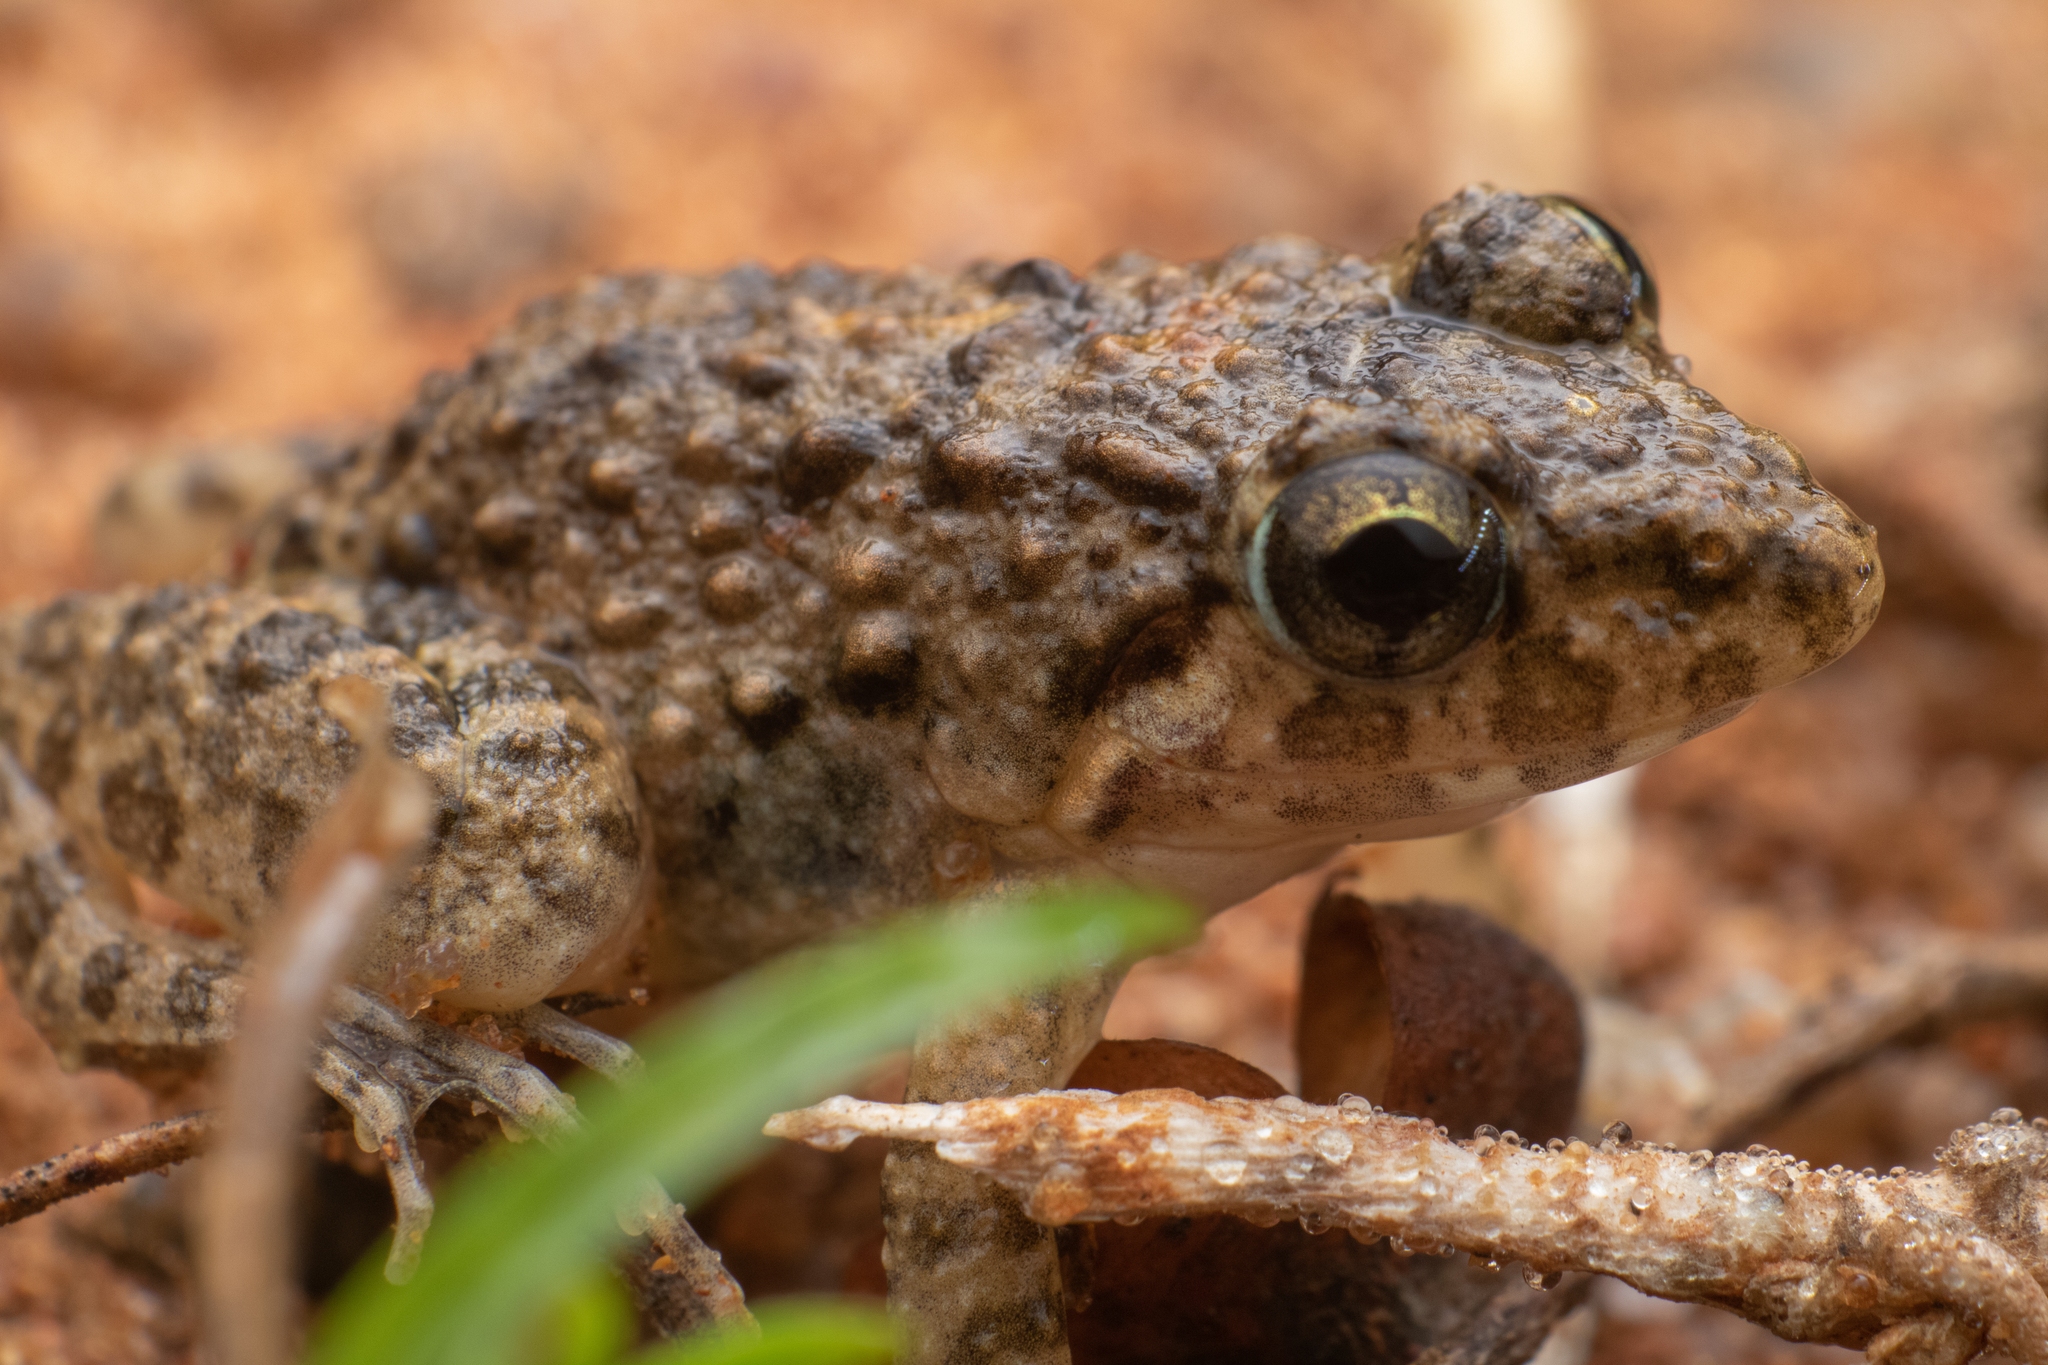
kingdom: Animalia
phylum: Chordata
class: Amphibia
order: Anura
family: Dicroglossidae
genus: Minervarya
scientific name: Minervarya agricola
